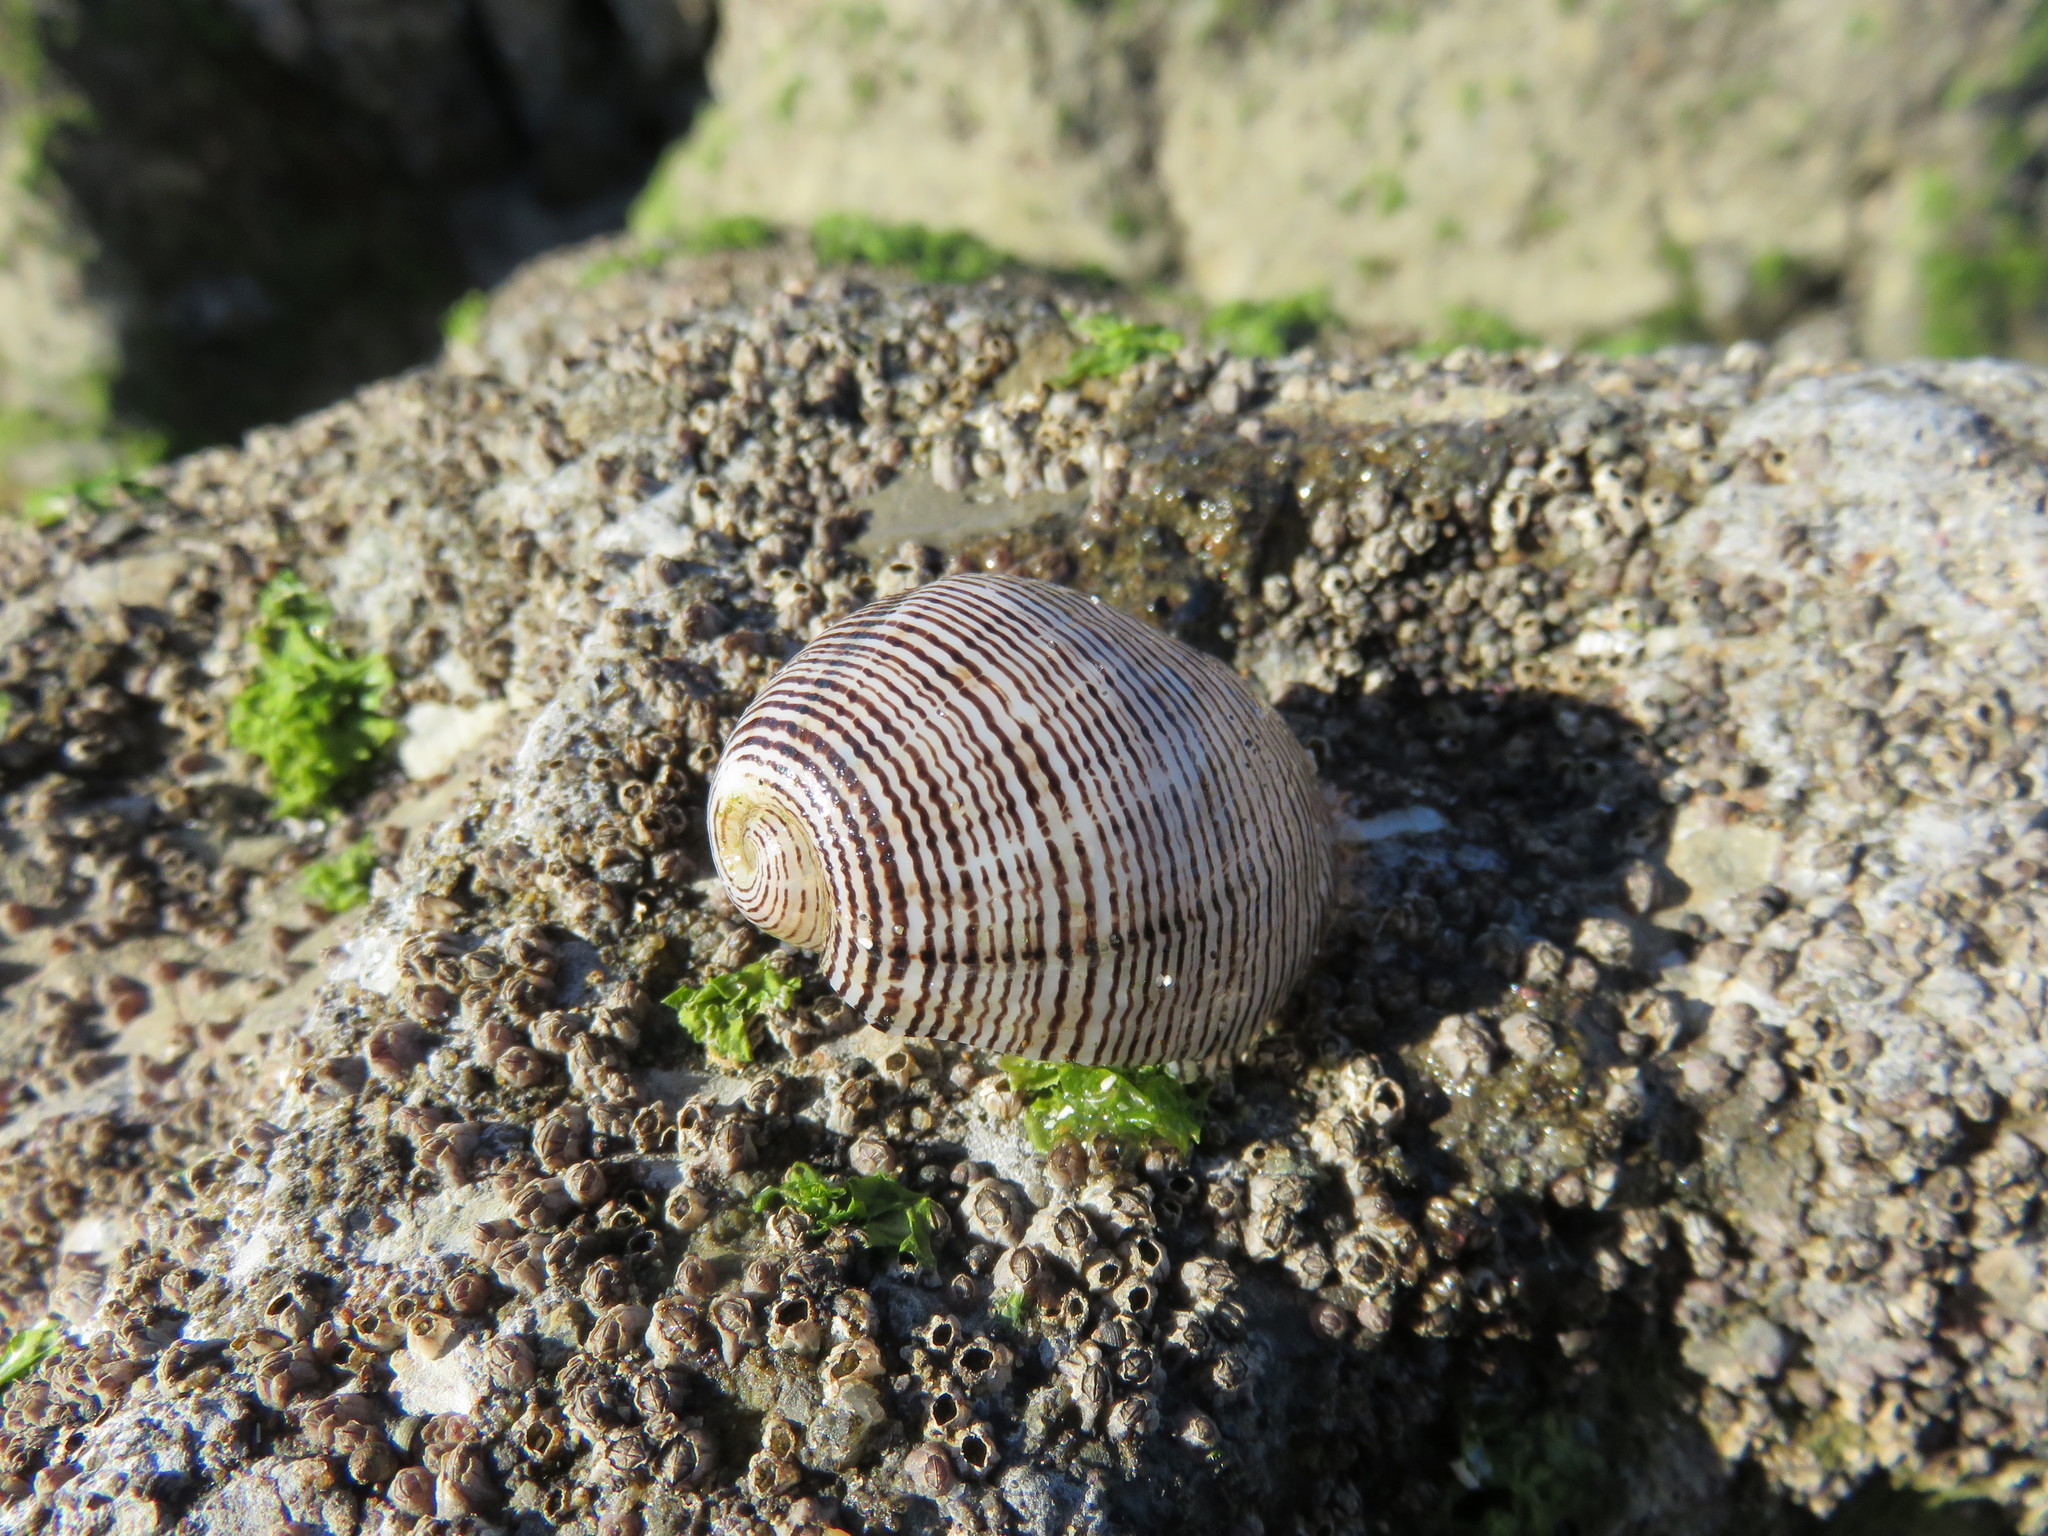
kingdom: Animalia
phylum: Mollusca
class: Gastropoda
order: Cephalaspidea
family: Aplustridae
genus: Hydatina
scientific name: Hydatina physis
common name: Brown-line paperbubble
